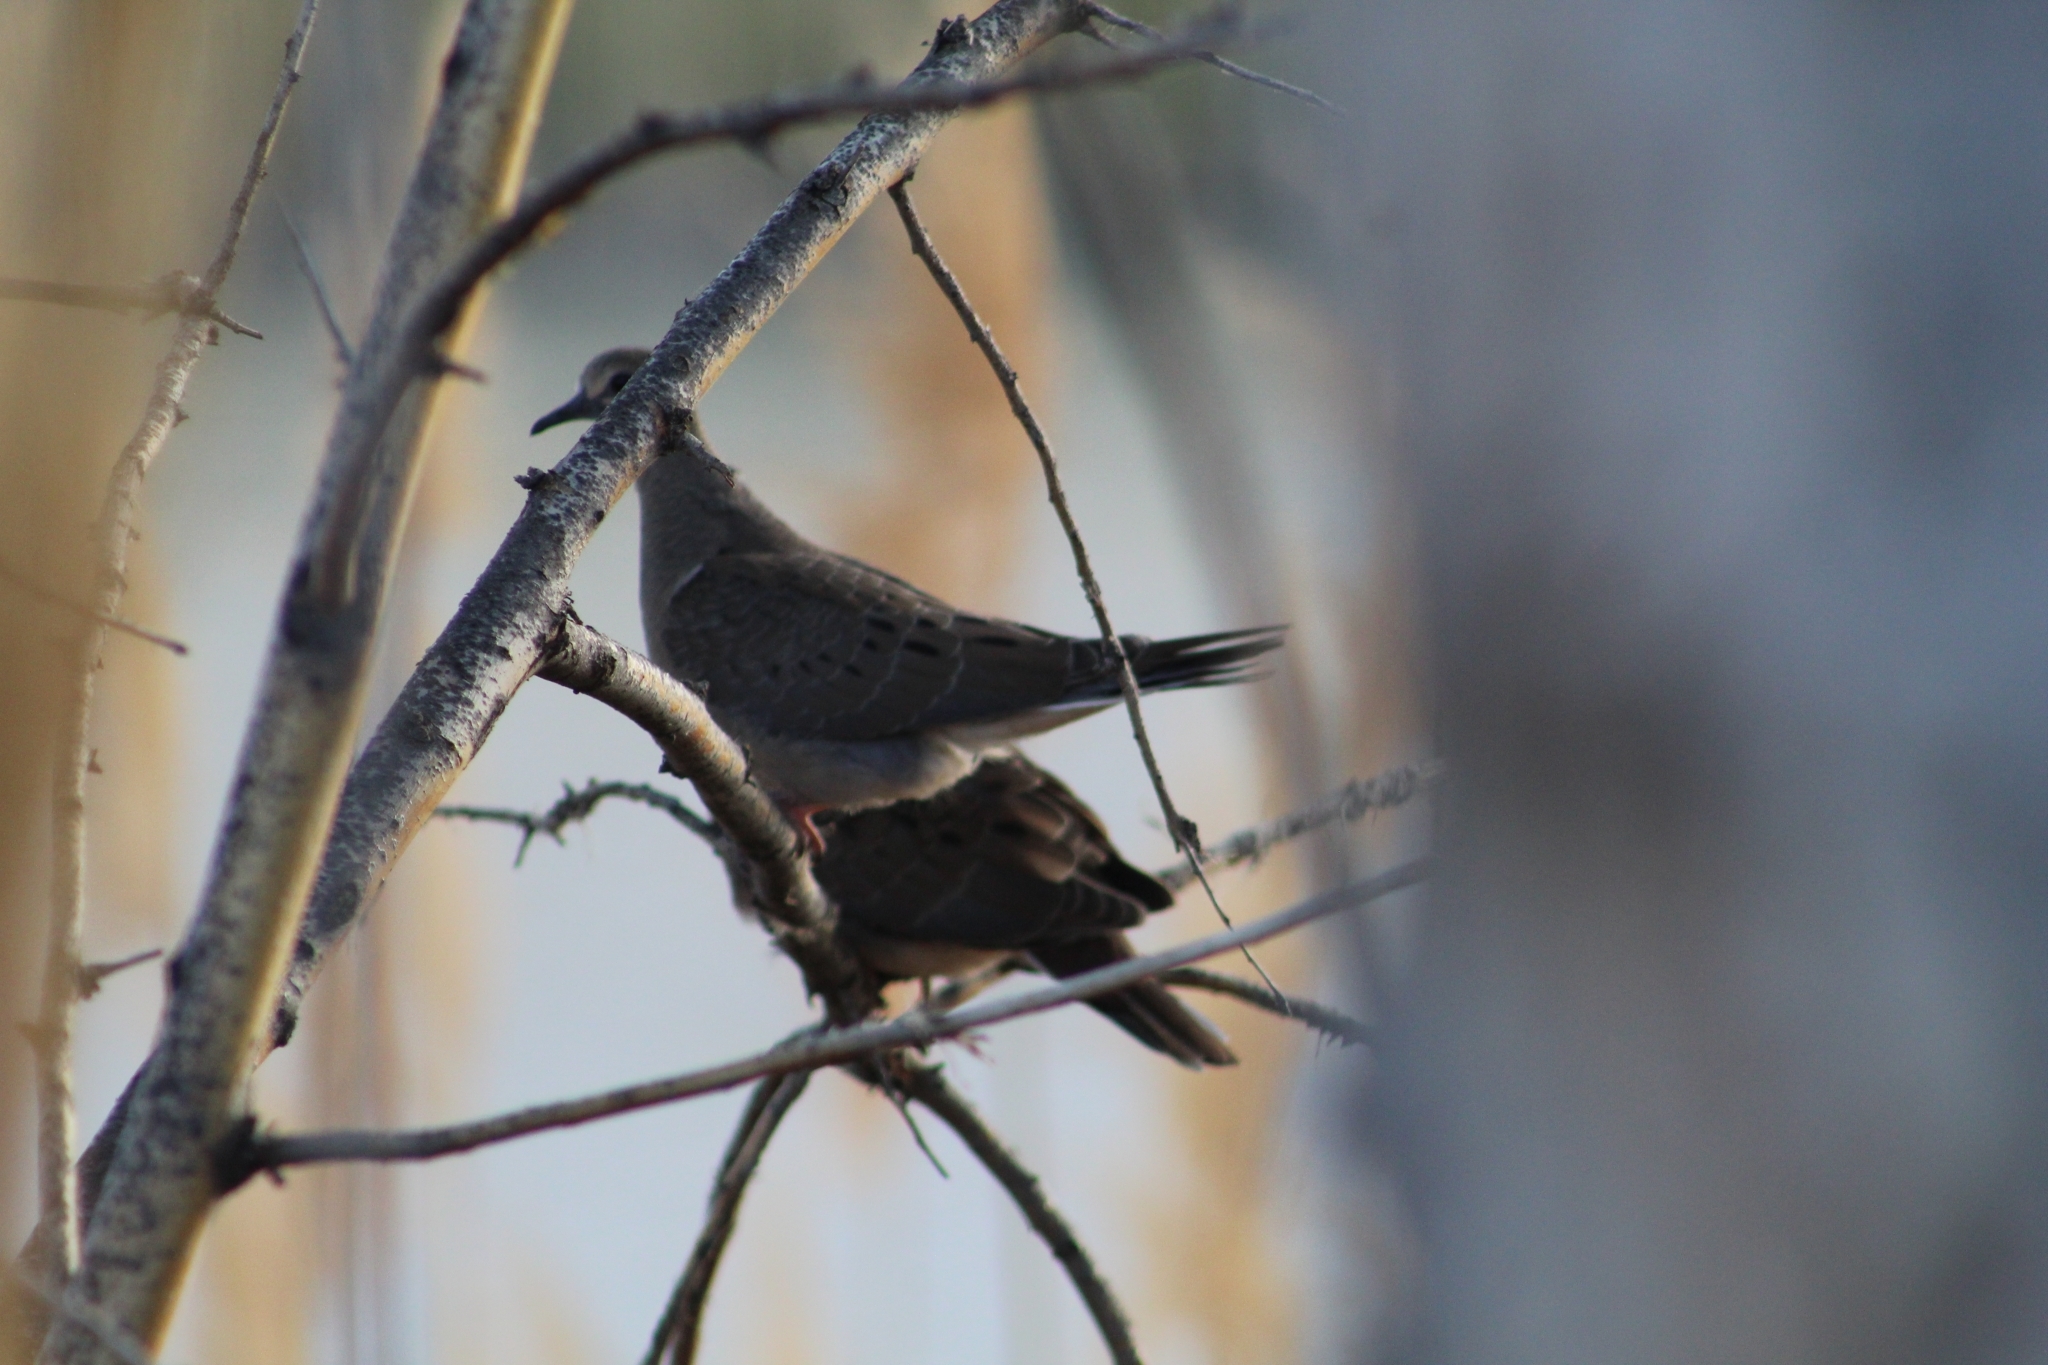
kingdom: Animalia
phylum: Chordata
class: Aves
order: Columbiformes
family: Columbidae
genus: Zenaida
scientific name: Zenaida macroura
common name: Mourning dove
